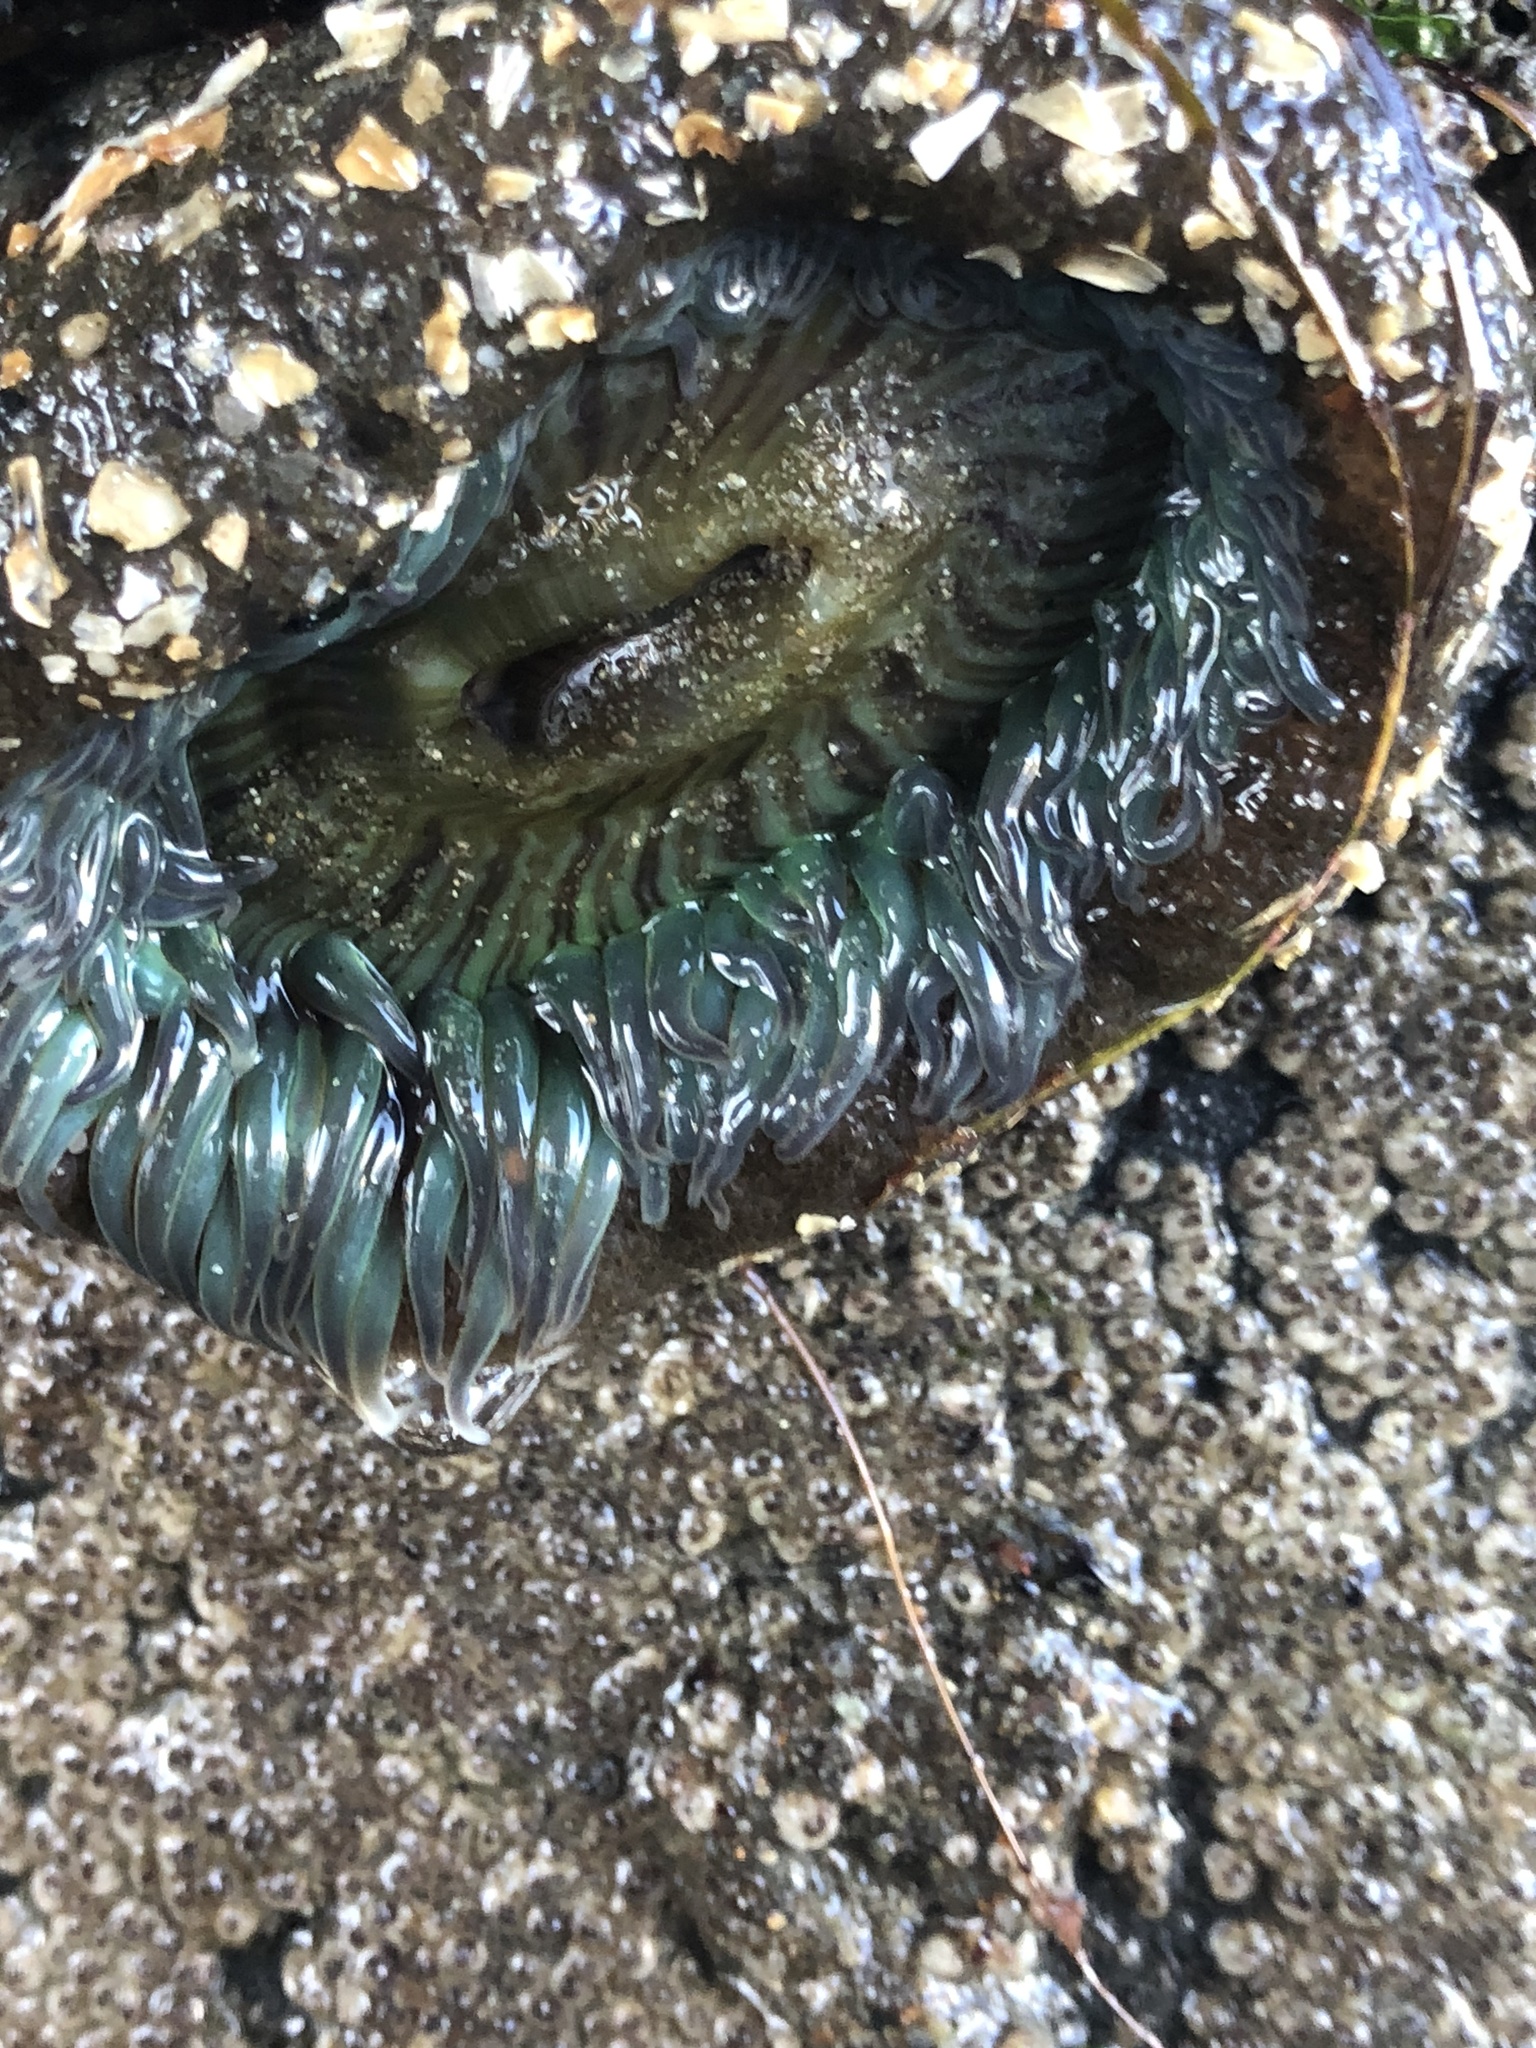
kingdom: Animalia
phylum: Cnidaria
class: Anthozoa
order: Actiniaria
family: Actiniidae
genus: Anthopleura
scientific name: Anthopleura sola
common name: Sun anemone
